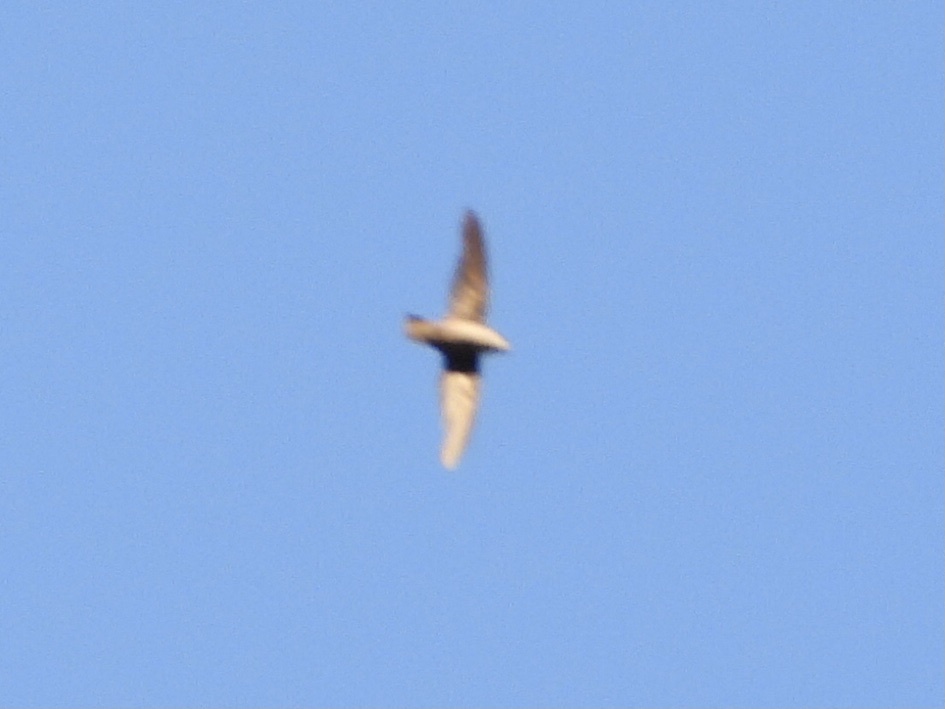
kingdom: Animalia
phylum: Chordata
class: Aves
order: Apodiformes
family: Apodidae
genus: Chaetura
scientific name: Chaetura vauxi
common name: Vaux's swift
